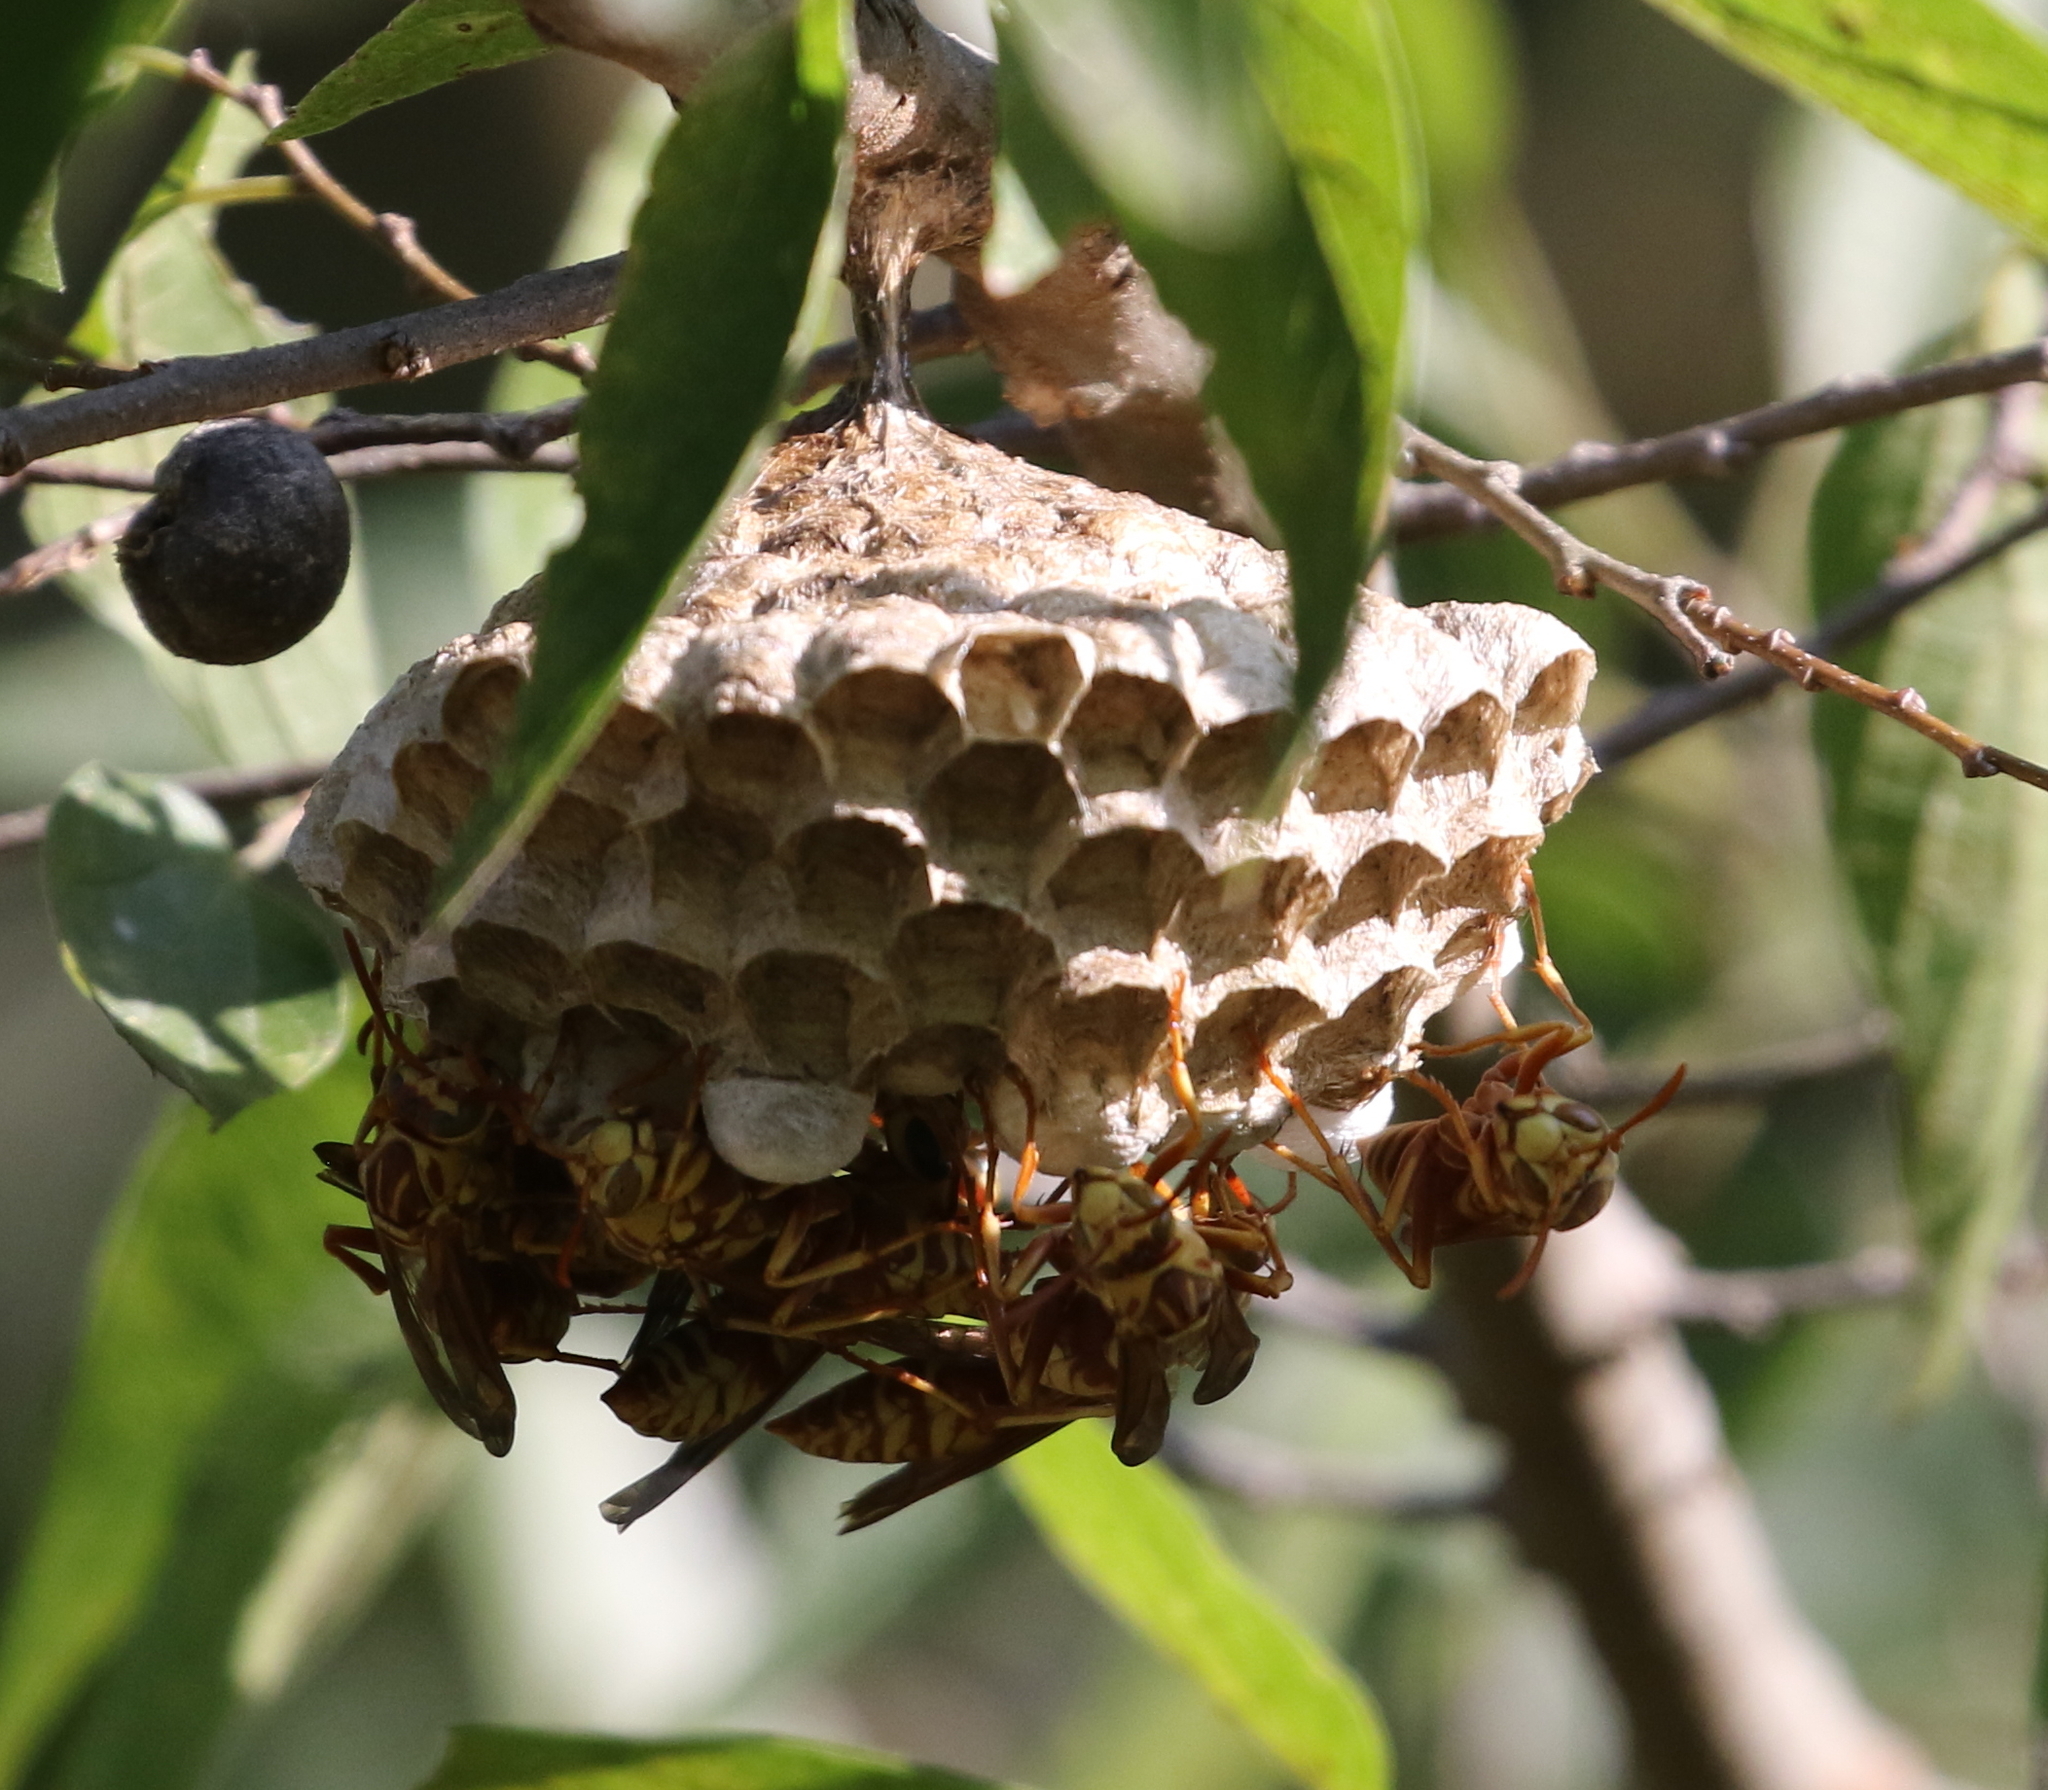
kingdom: Animalia
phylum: Arthropoda
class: Insecta
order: Hymenoptera
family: Eumenidae
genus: Polistes
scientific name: Polistes apachus
